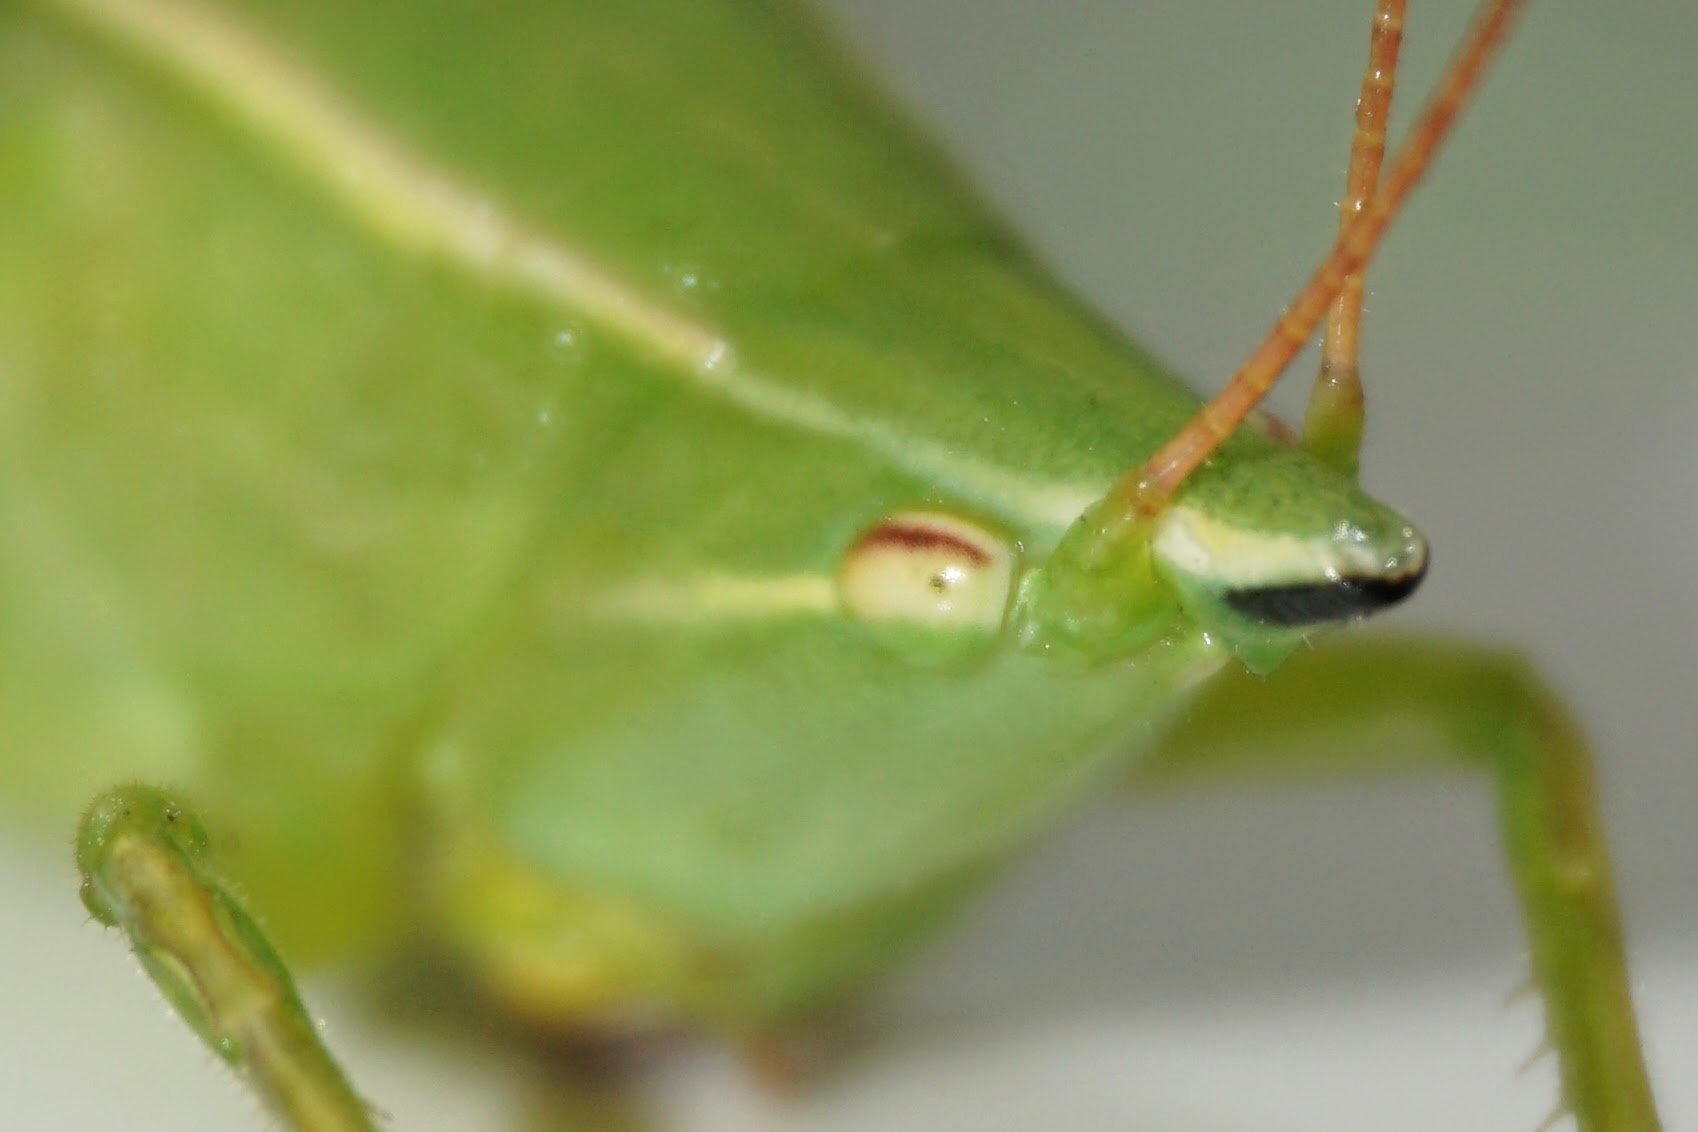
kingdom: Animalia
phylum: Arthropoda
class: Insecta
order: Orthoptera
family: Tettigoniidae
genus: Neoconocephalus
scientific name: Neoconocephalus ensiger
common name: Swordbearer
